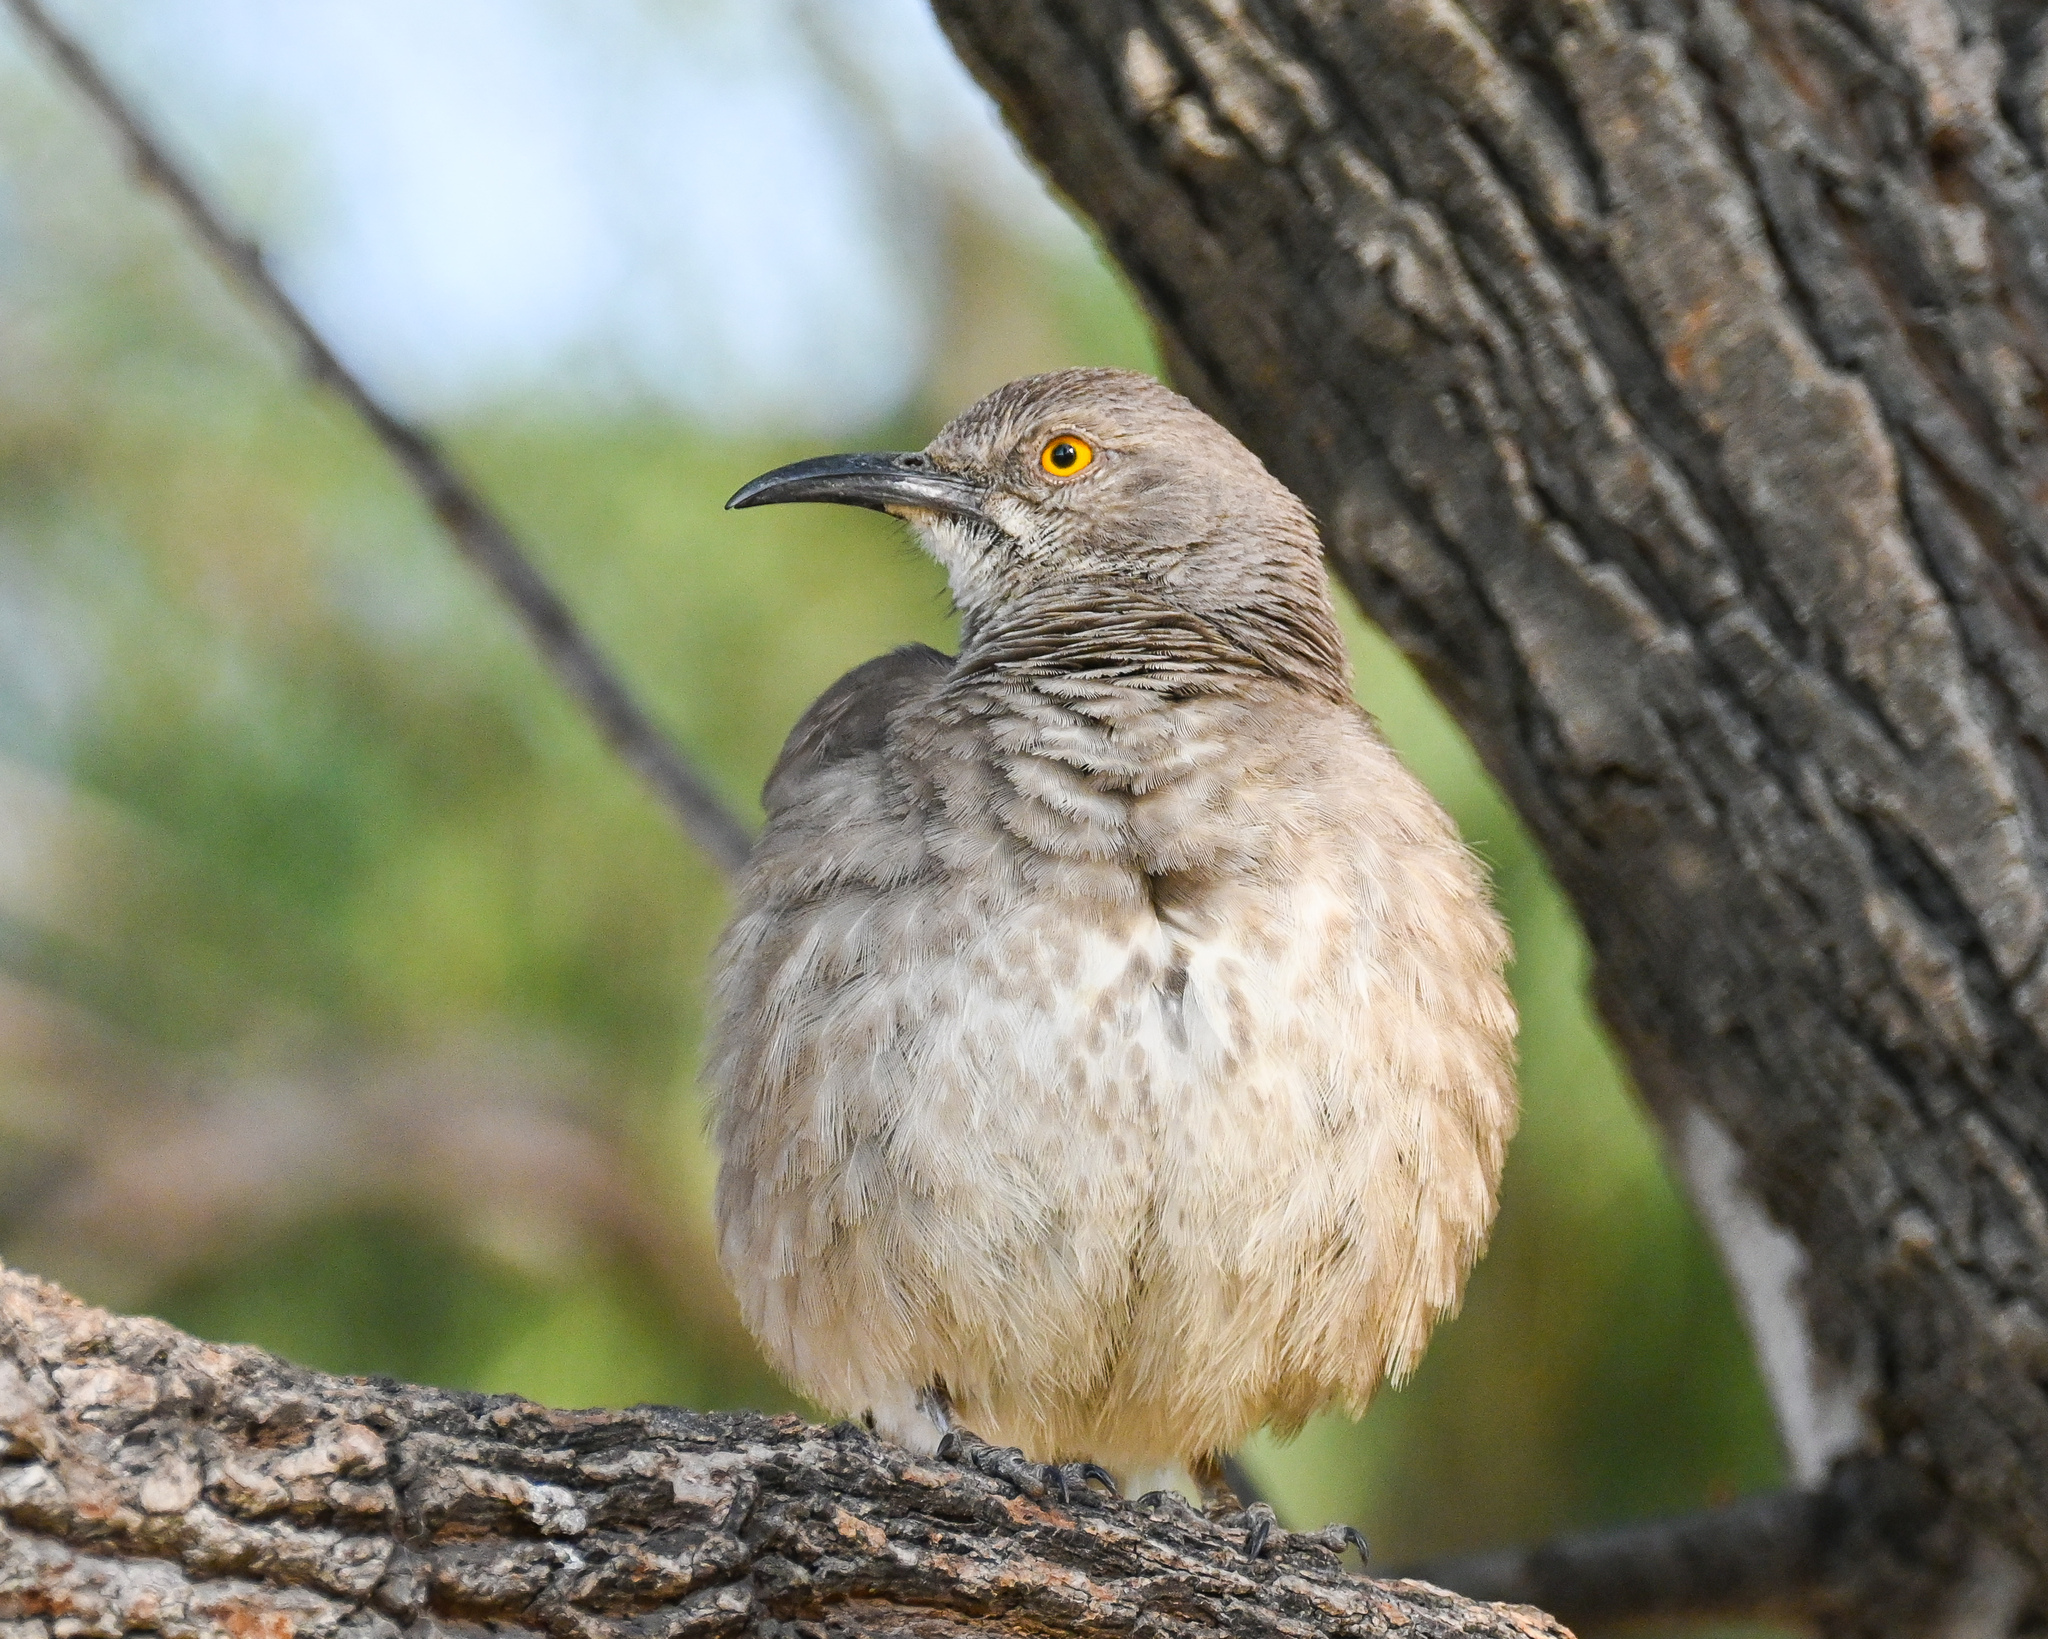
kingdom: Animalia
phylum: Chordata
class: Aves
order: Passeriformes
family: Mimidae
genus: Toxostoma
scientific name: Toxostoma curvirostre
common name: Curve-billed thrasher
